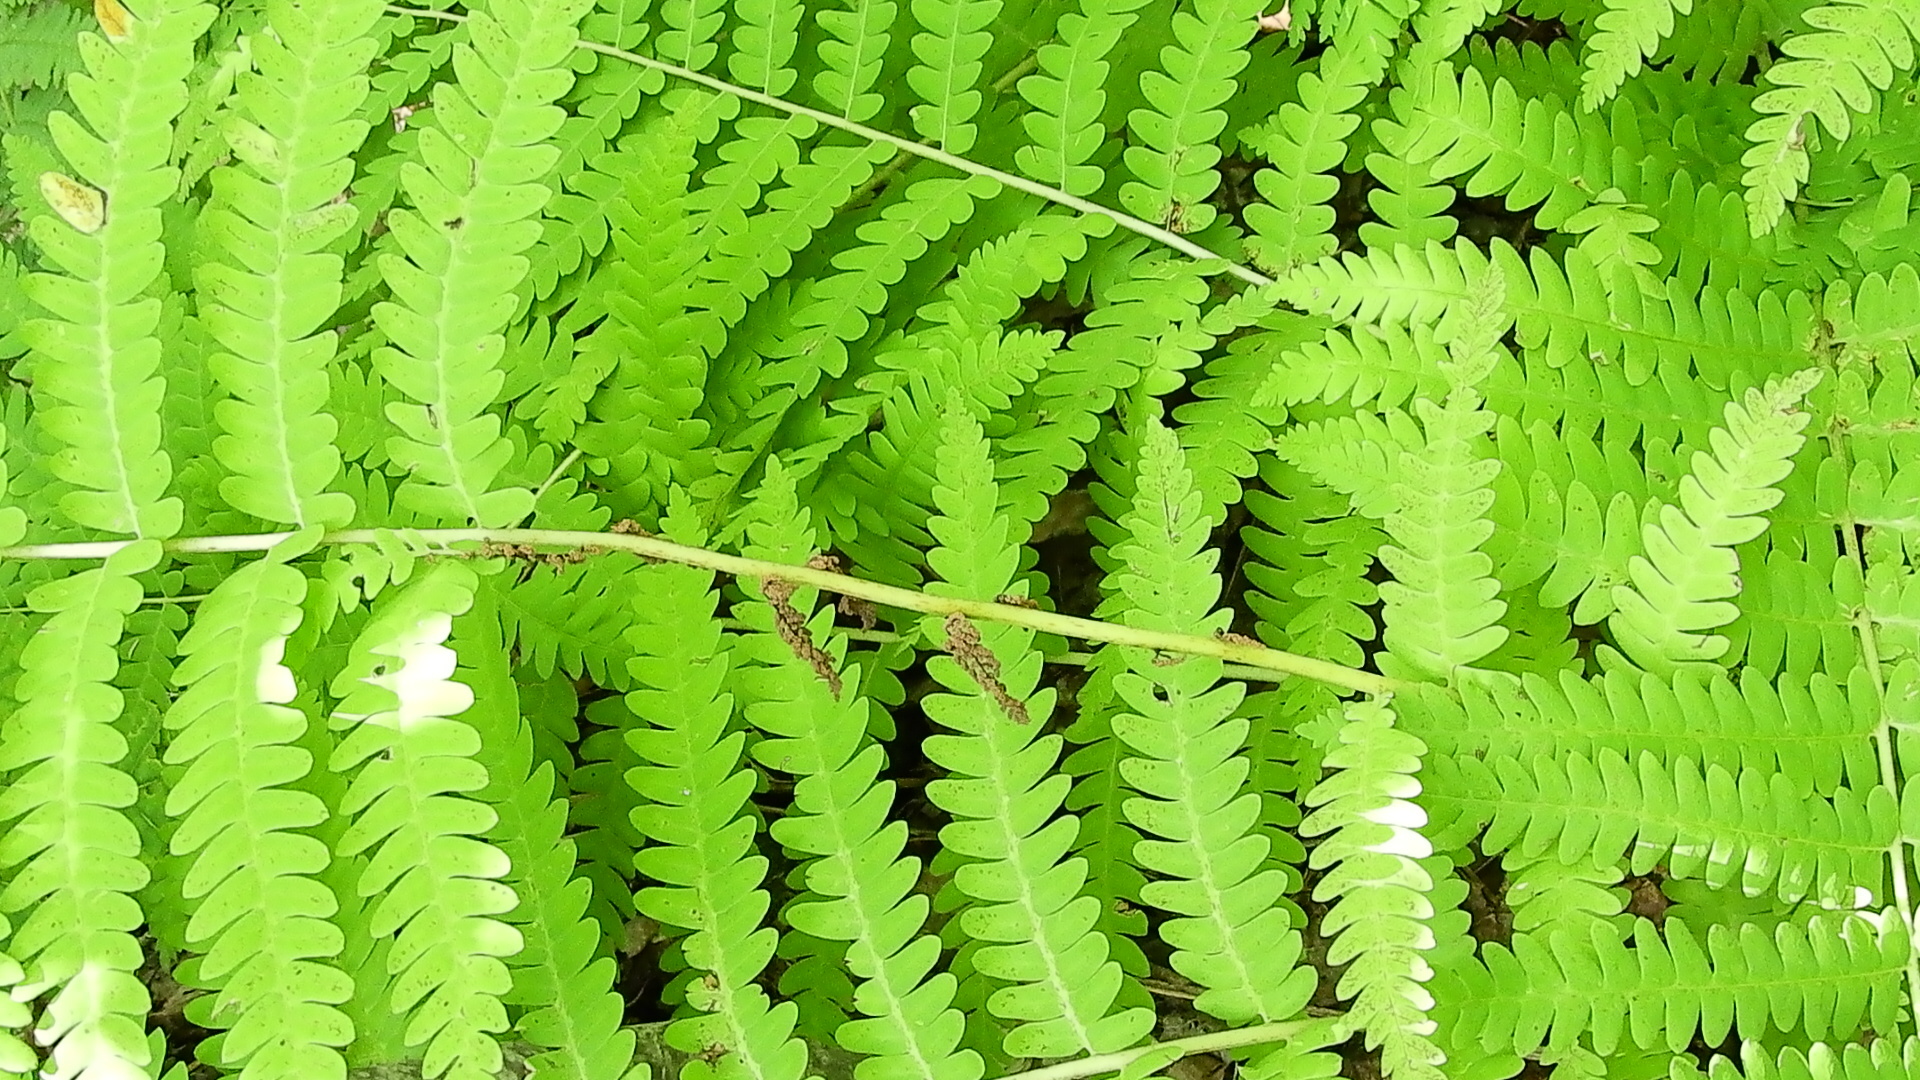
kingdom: Plantae
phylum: Tracheophyta
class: Polypodiopsida
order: Osmundales
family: Osmundaceae
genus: Claytosmunda
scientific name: Claytosmunda claytoniana
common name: Clayton's fern
